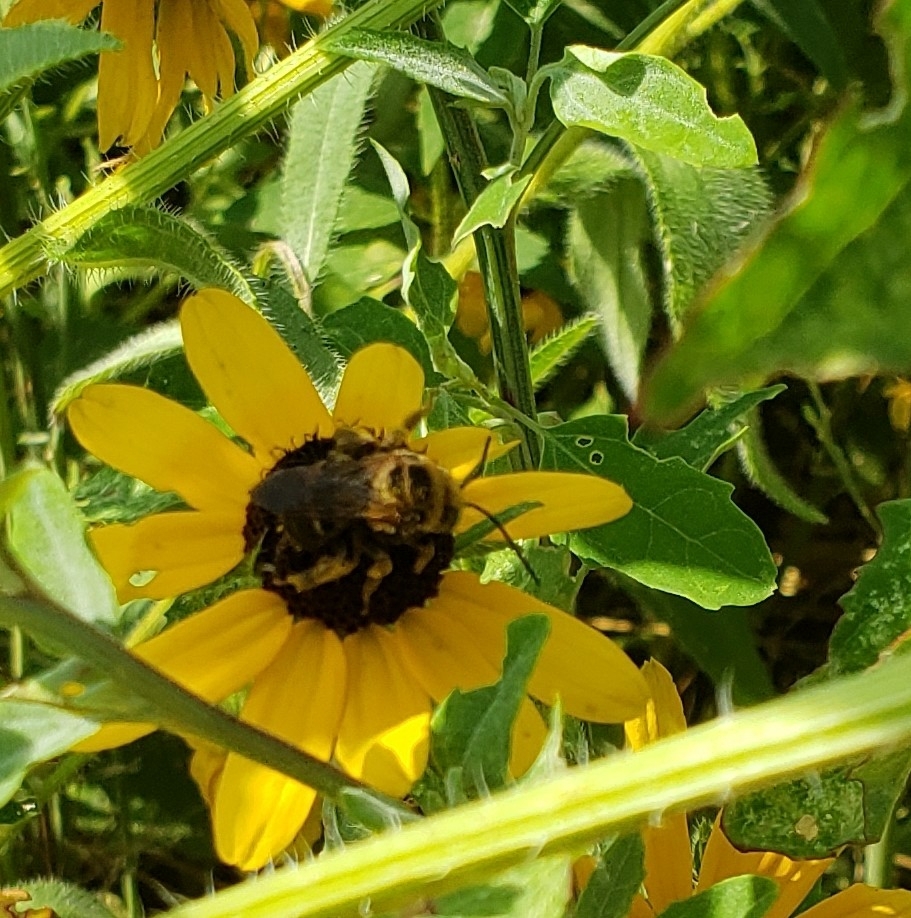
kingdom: Animalia
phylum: Arthropoda
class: Insecta
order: Hymenoptera
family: Apidae
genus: Svastra
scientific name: Svastra obliqua
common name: Oblique longhorn
